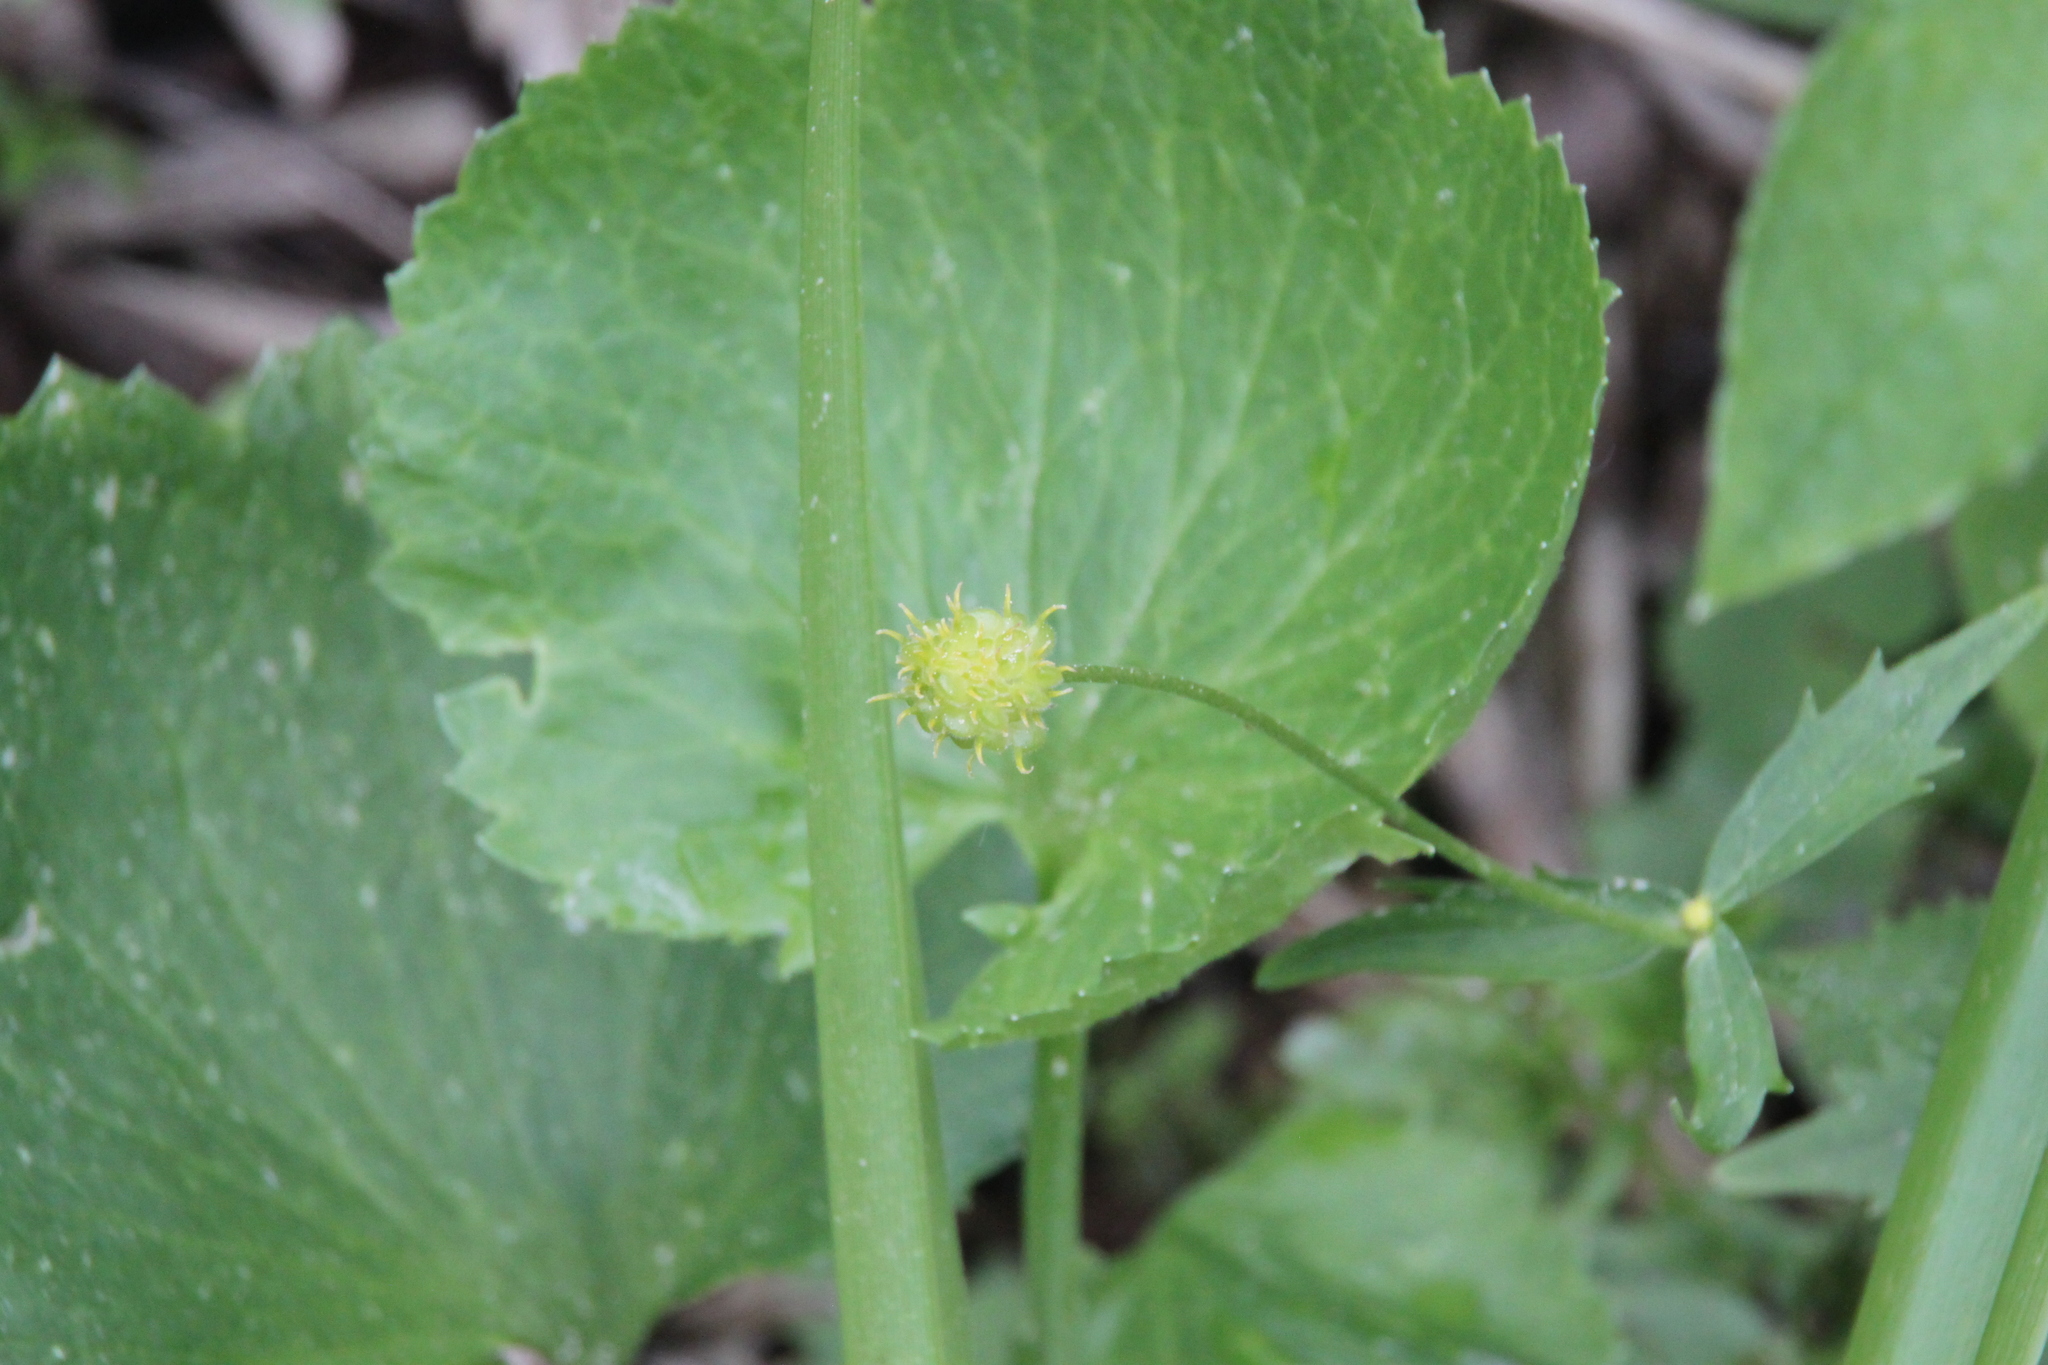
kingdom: Plantae
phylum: Tracheophyta
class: Magnoliopsida
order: Ranunculales
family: Ranunculaceae
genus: Ranunculus
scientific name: Ranunculus cassubicus
